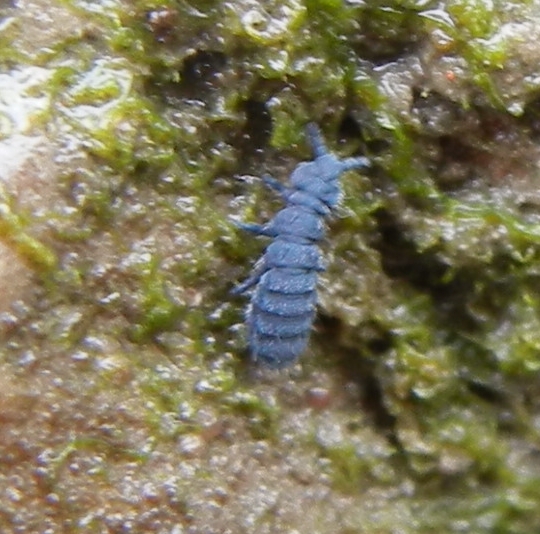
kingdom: Animalia
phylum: Arthropoda
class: Collembola
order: Poduromorpha
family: Neanuridae
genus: Anurida
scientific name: Anurida maritima
